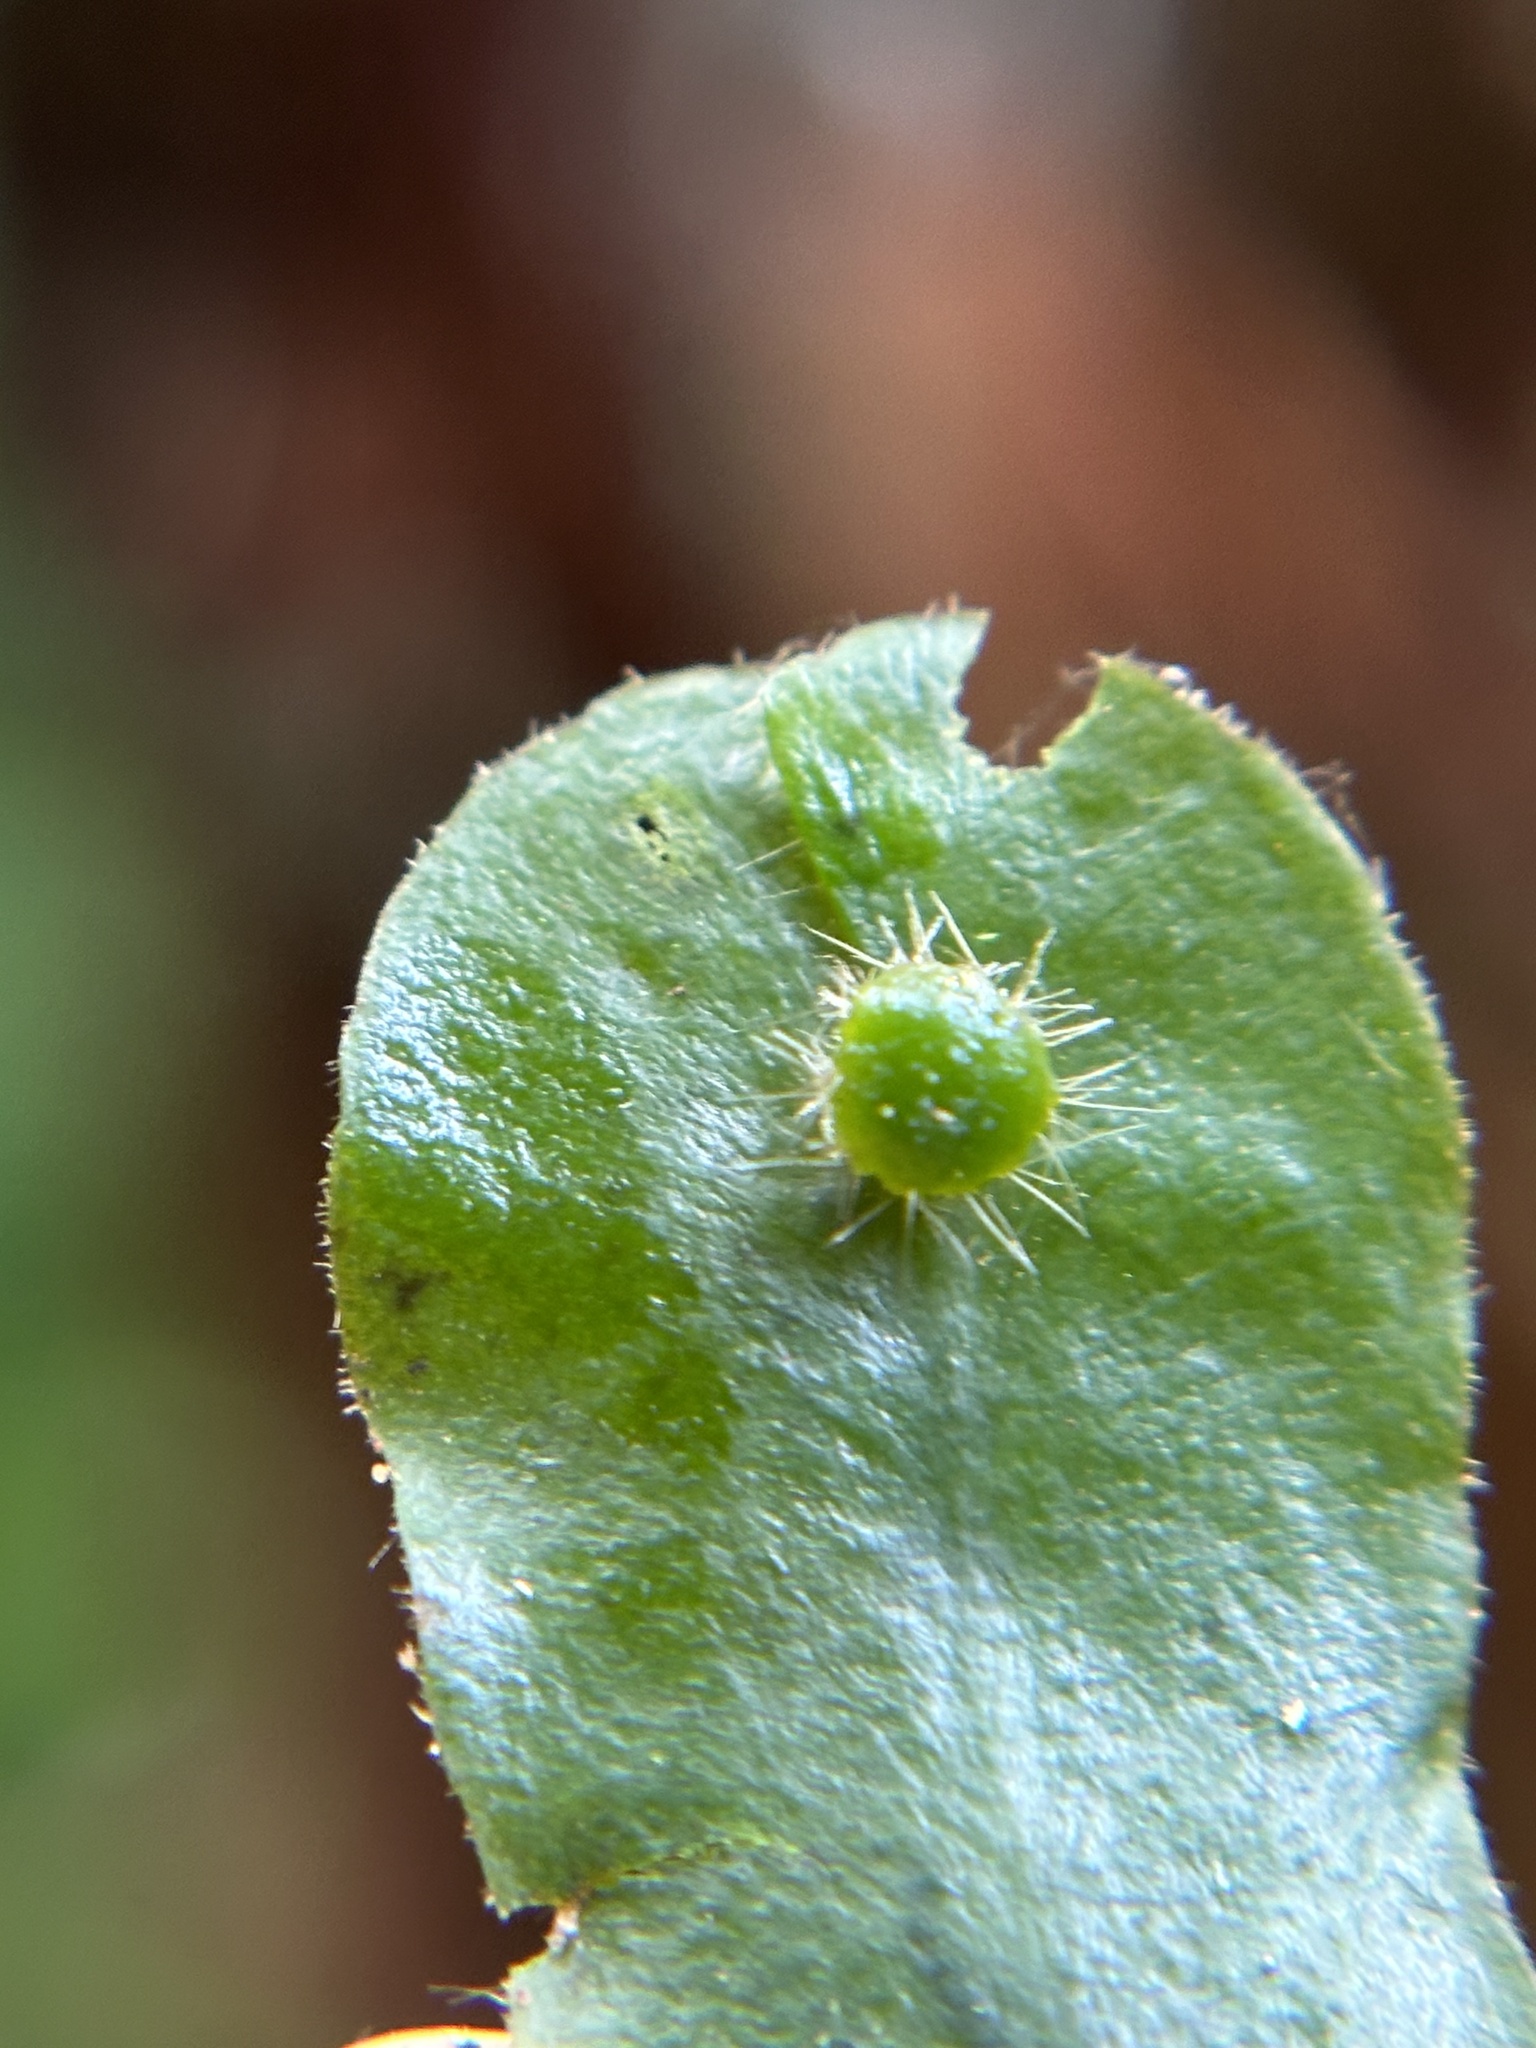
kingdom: Plantae
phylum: Marchantiophyta
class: Marchantiopsida
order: Marchantiales
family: Dumortieraceae
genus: Dumortiera
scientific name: Dumortiera hirsuta
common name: Dumortier's liverwort
